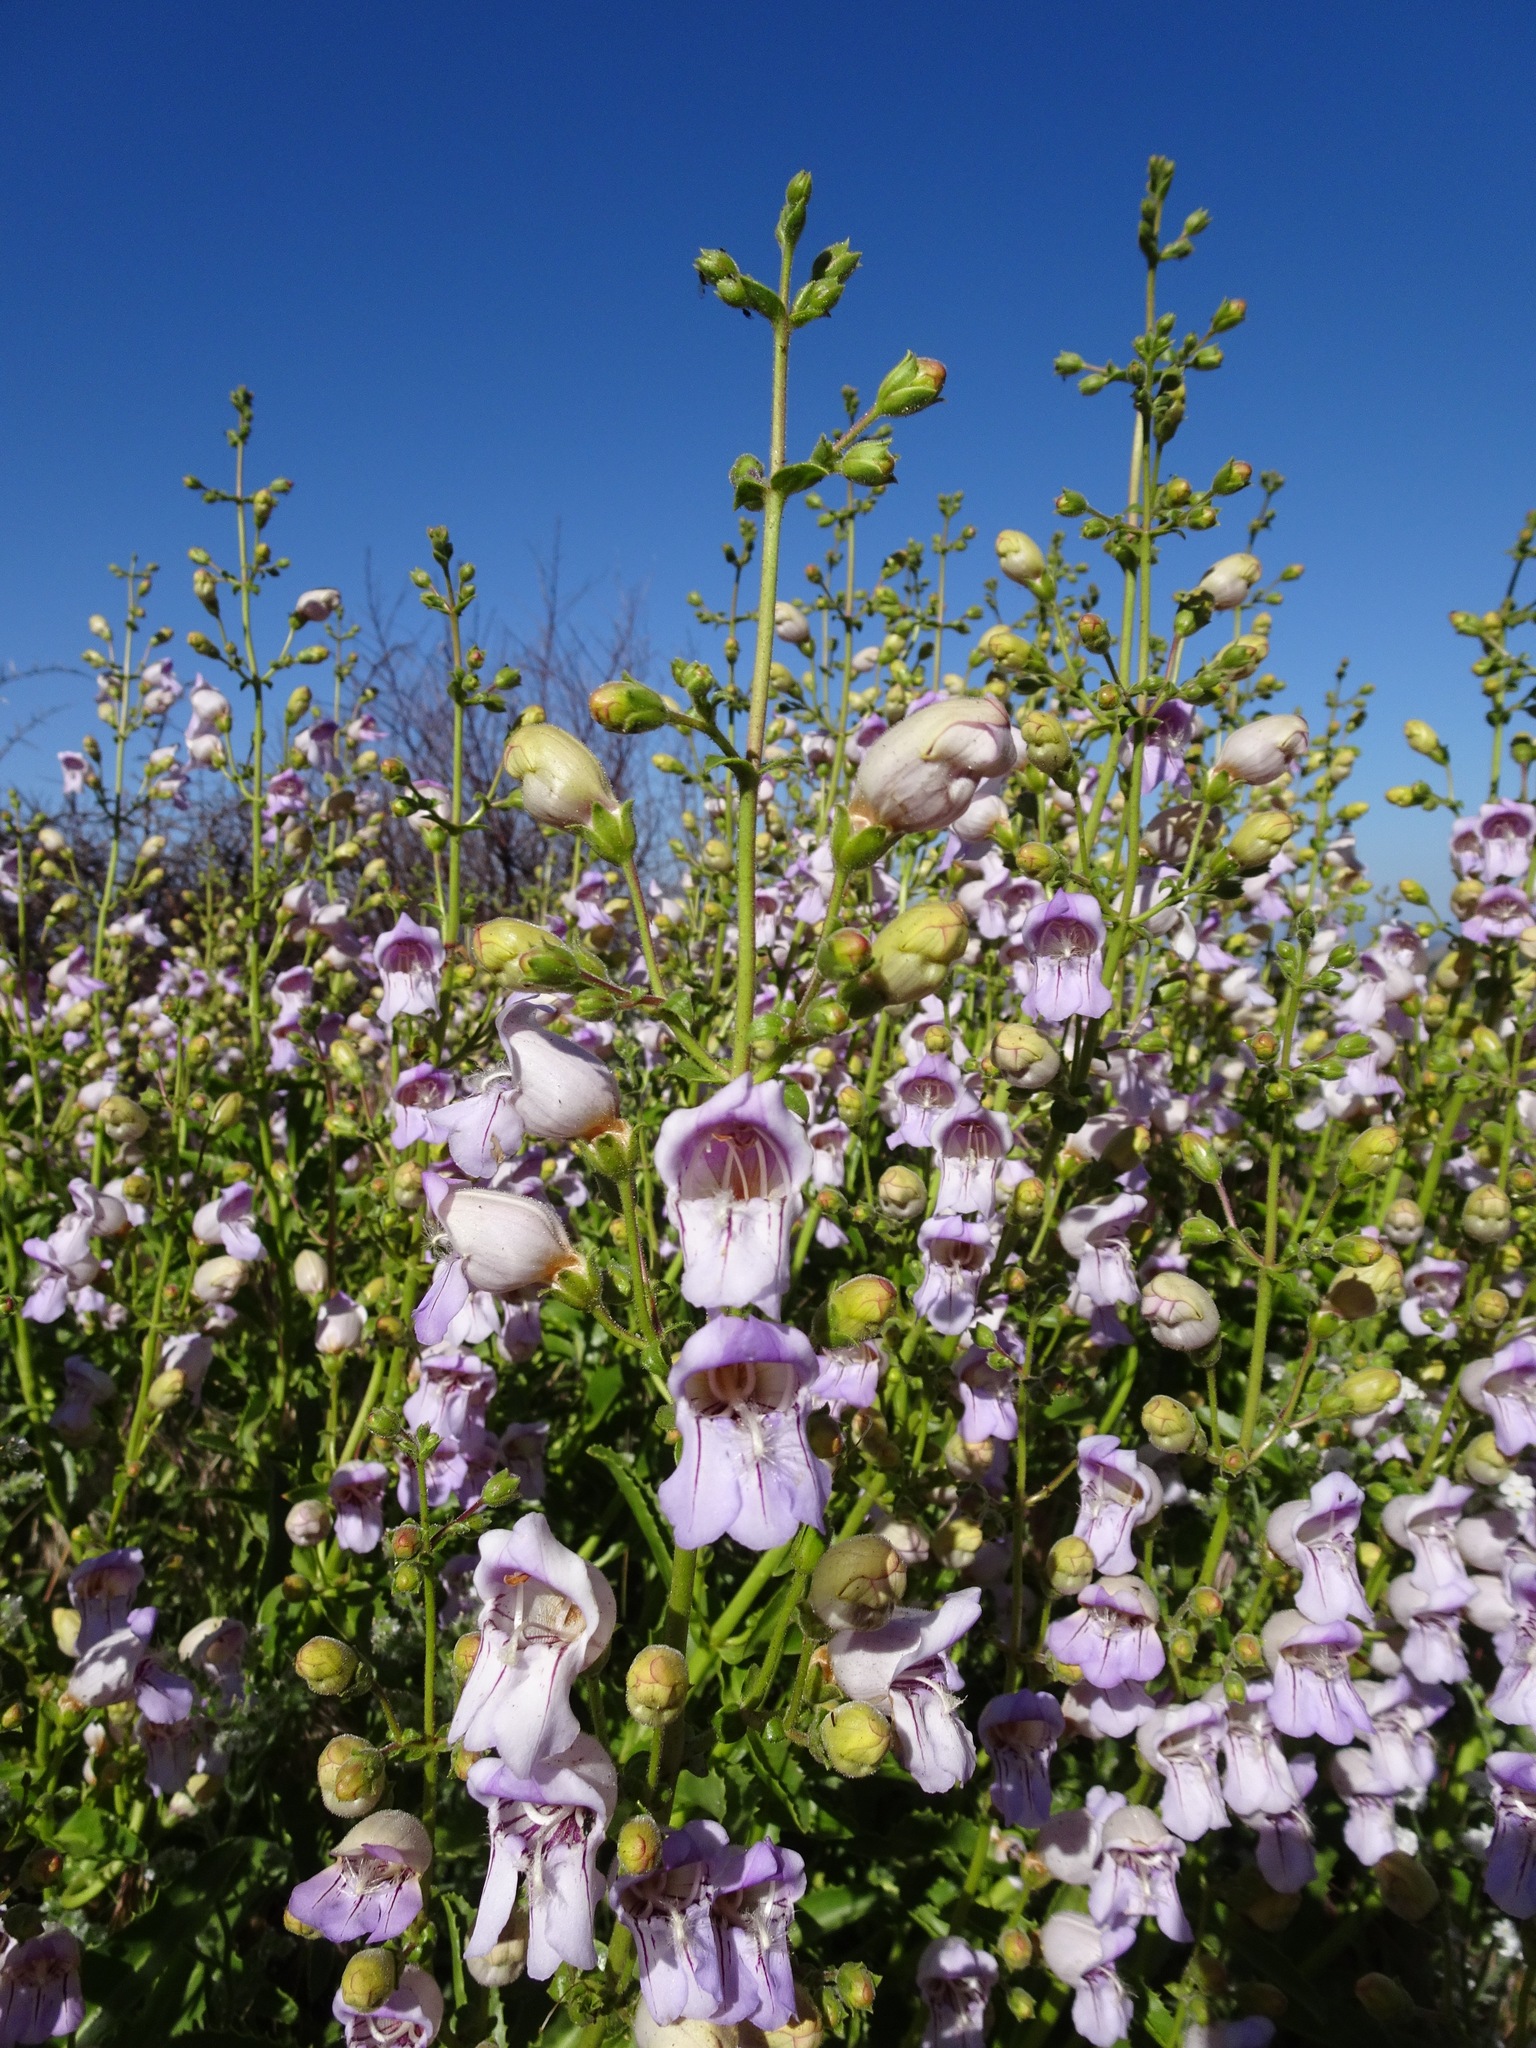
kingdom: Plantae
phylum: Tracheophyta
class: Magnoliopsida
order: Lamiales
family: Plantaginaceae
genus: Penstemon
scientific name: Penstemon grinnellii
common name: Grinnell's beardtongue
